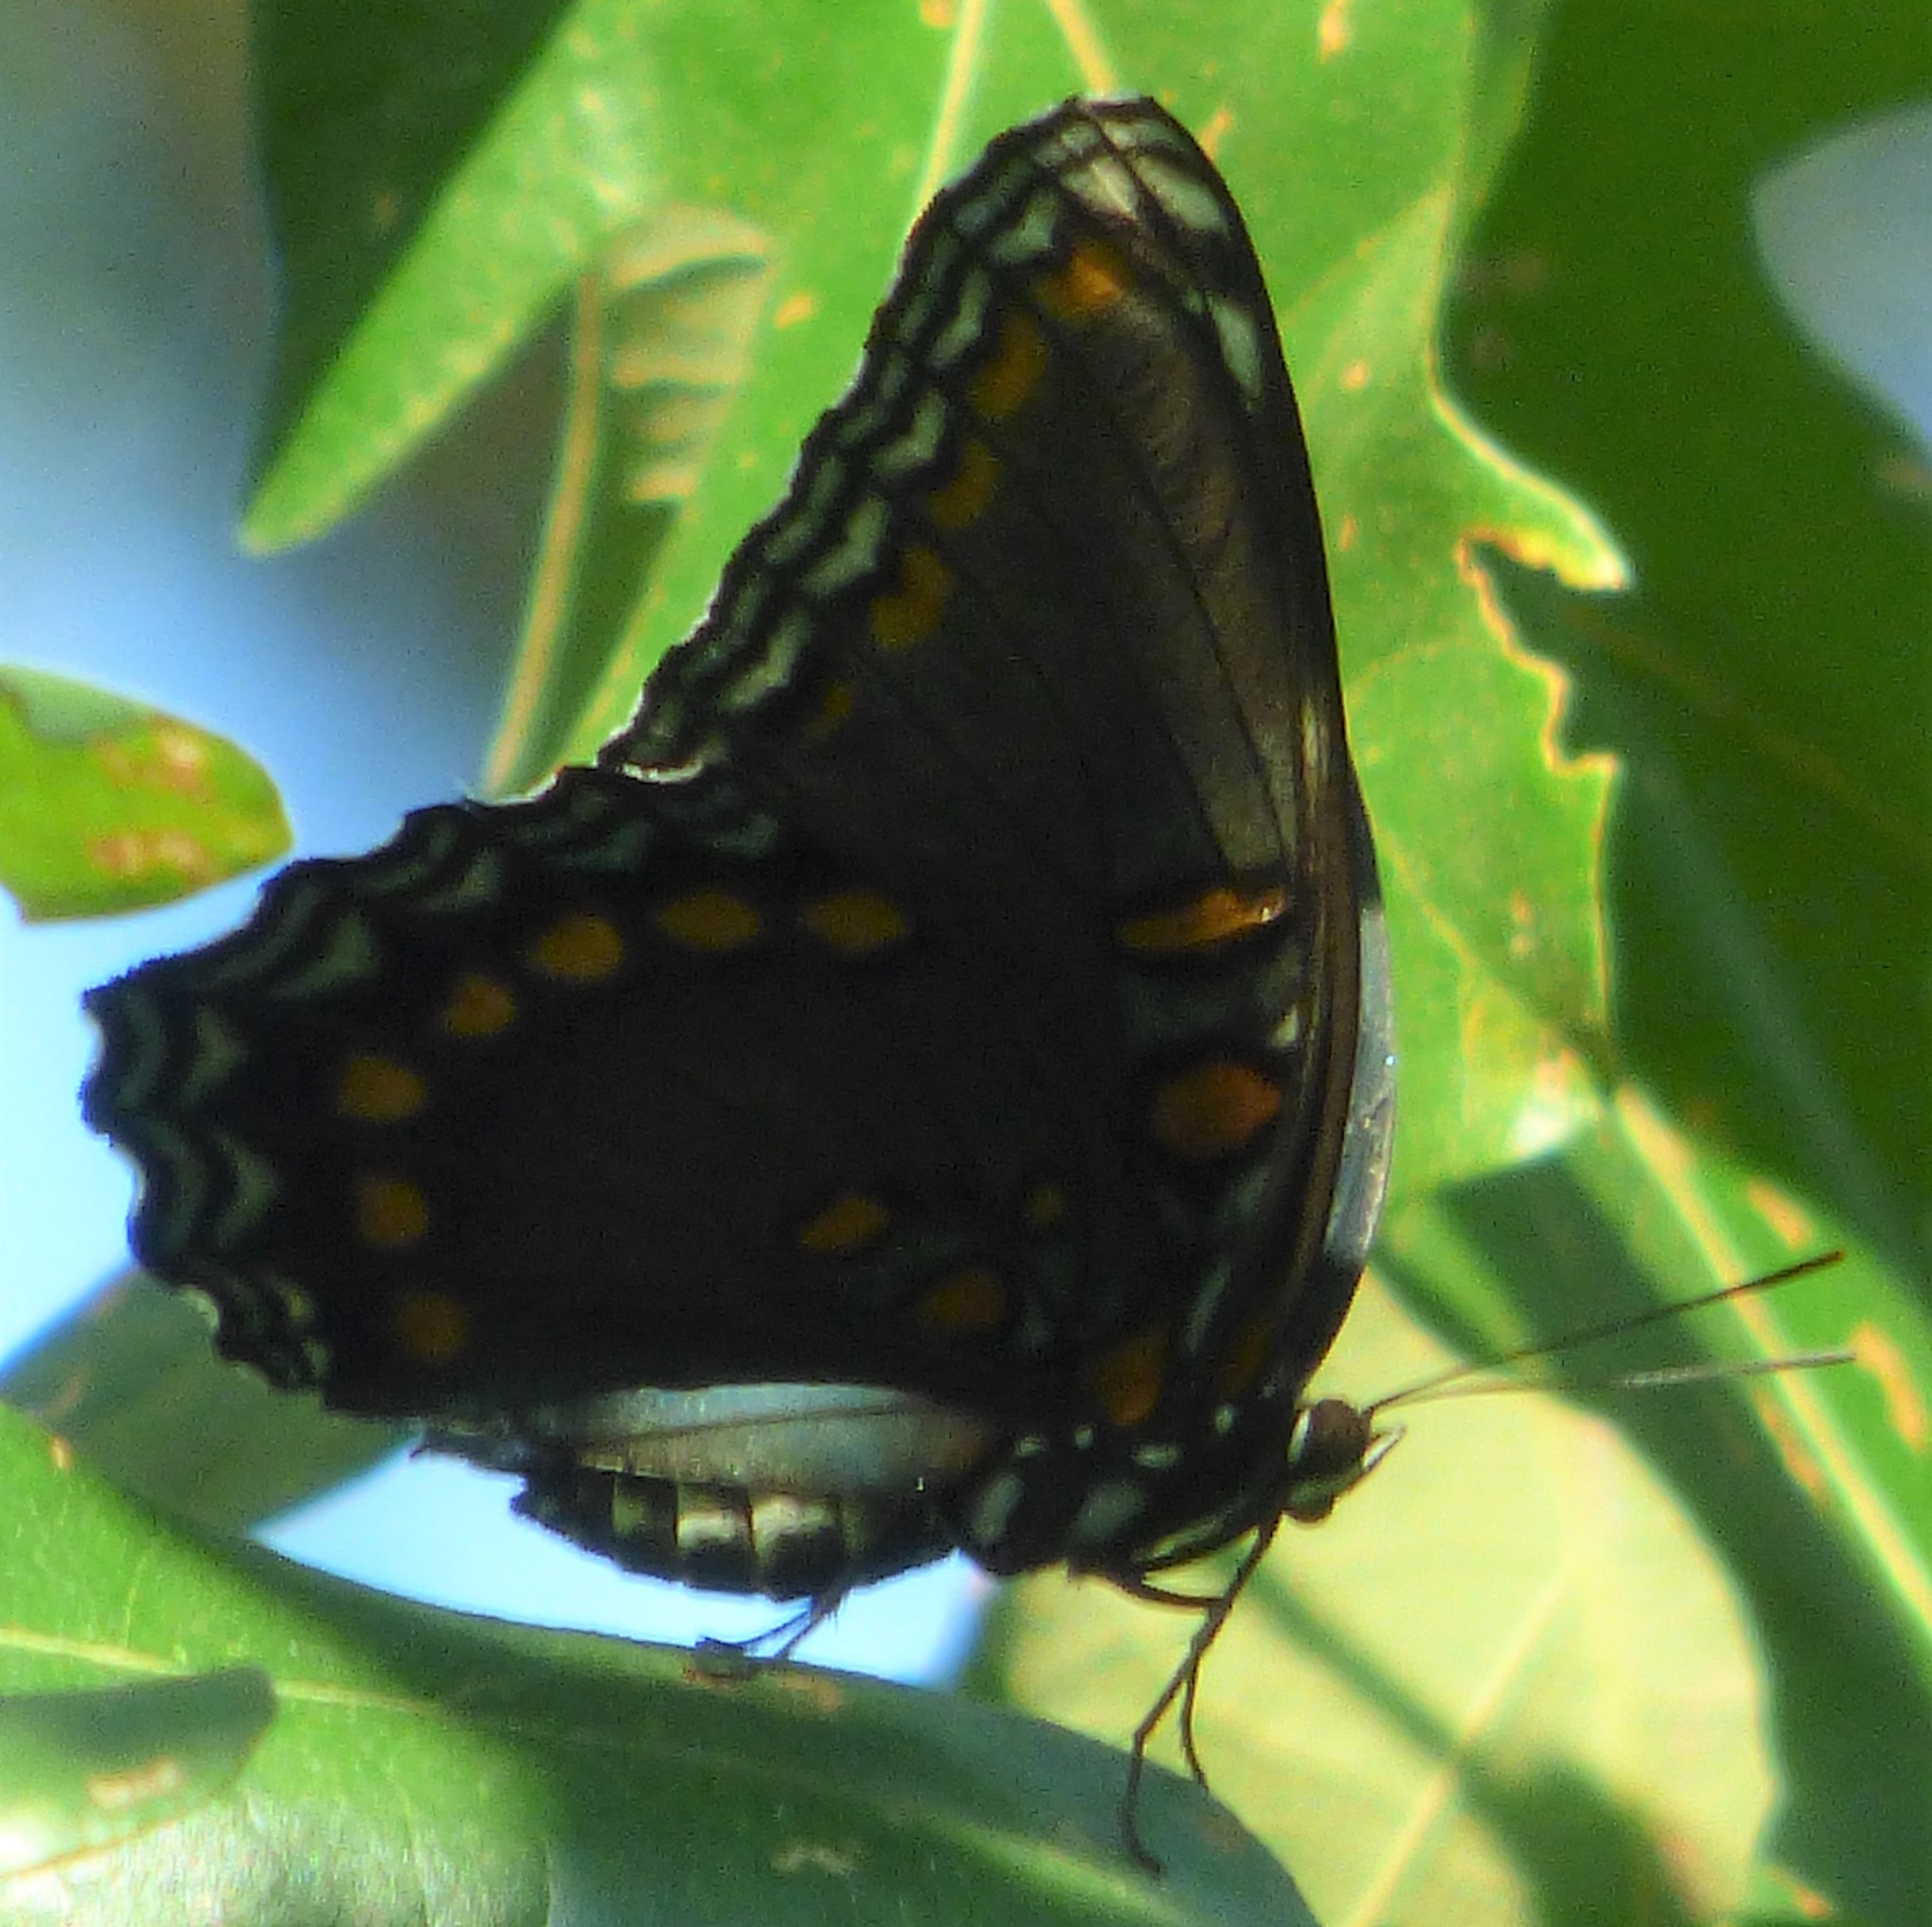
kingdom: Animalia
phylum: Arthropoda
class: Insecta
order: Lepidoptera
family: Nymphalidae
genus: Limenitis
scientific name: Limenitis astyanax
